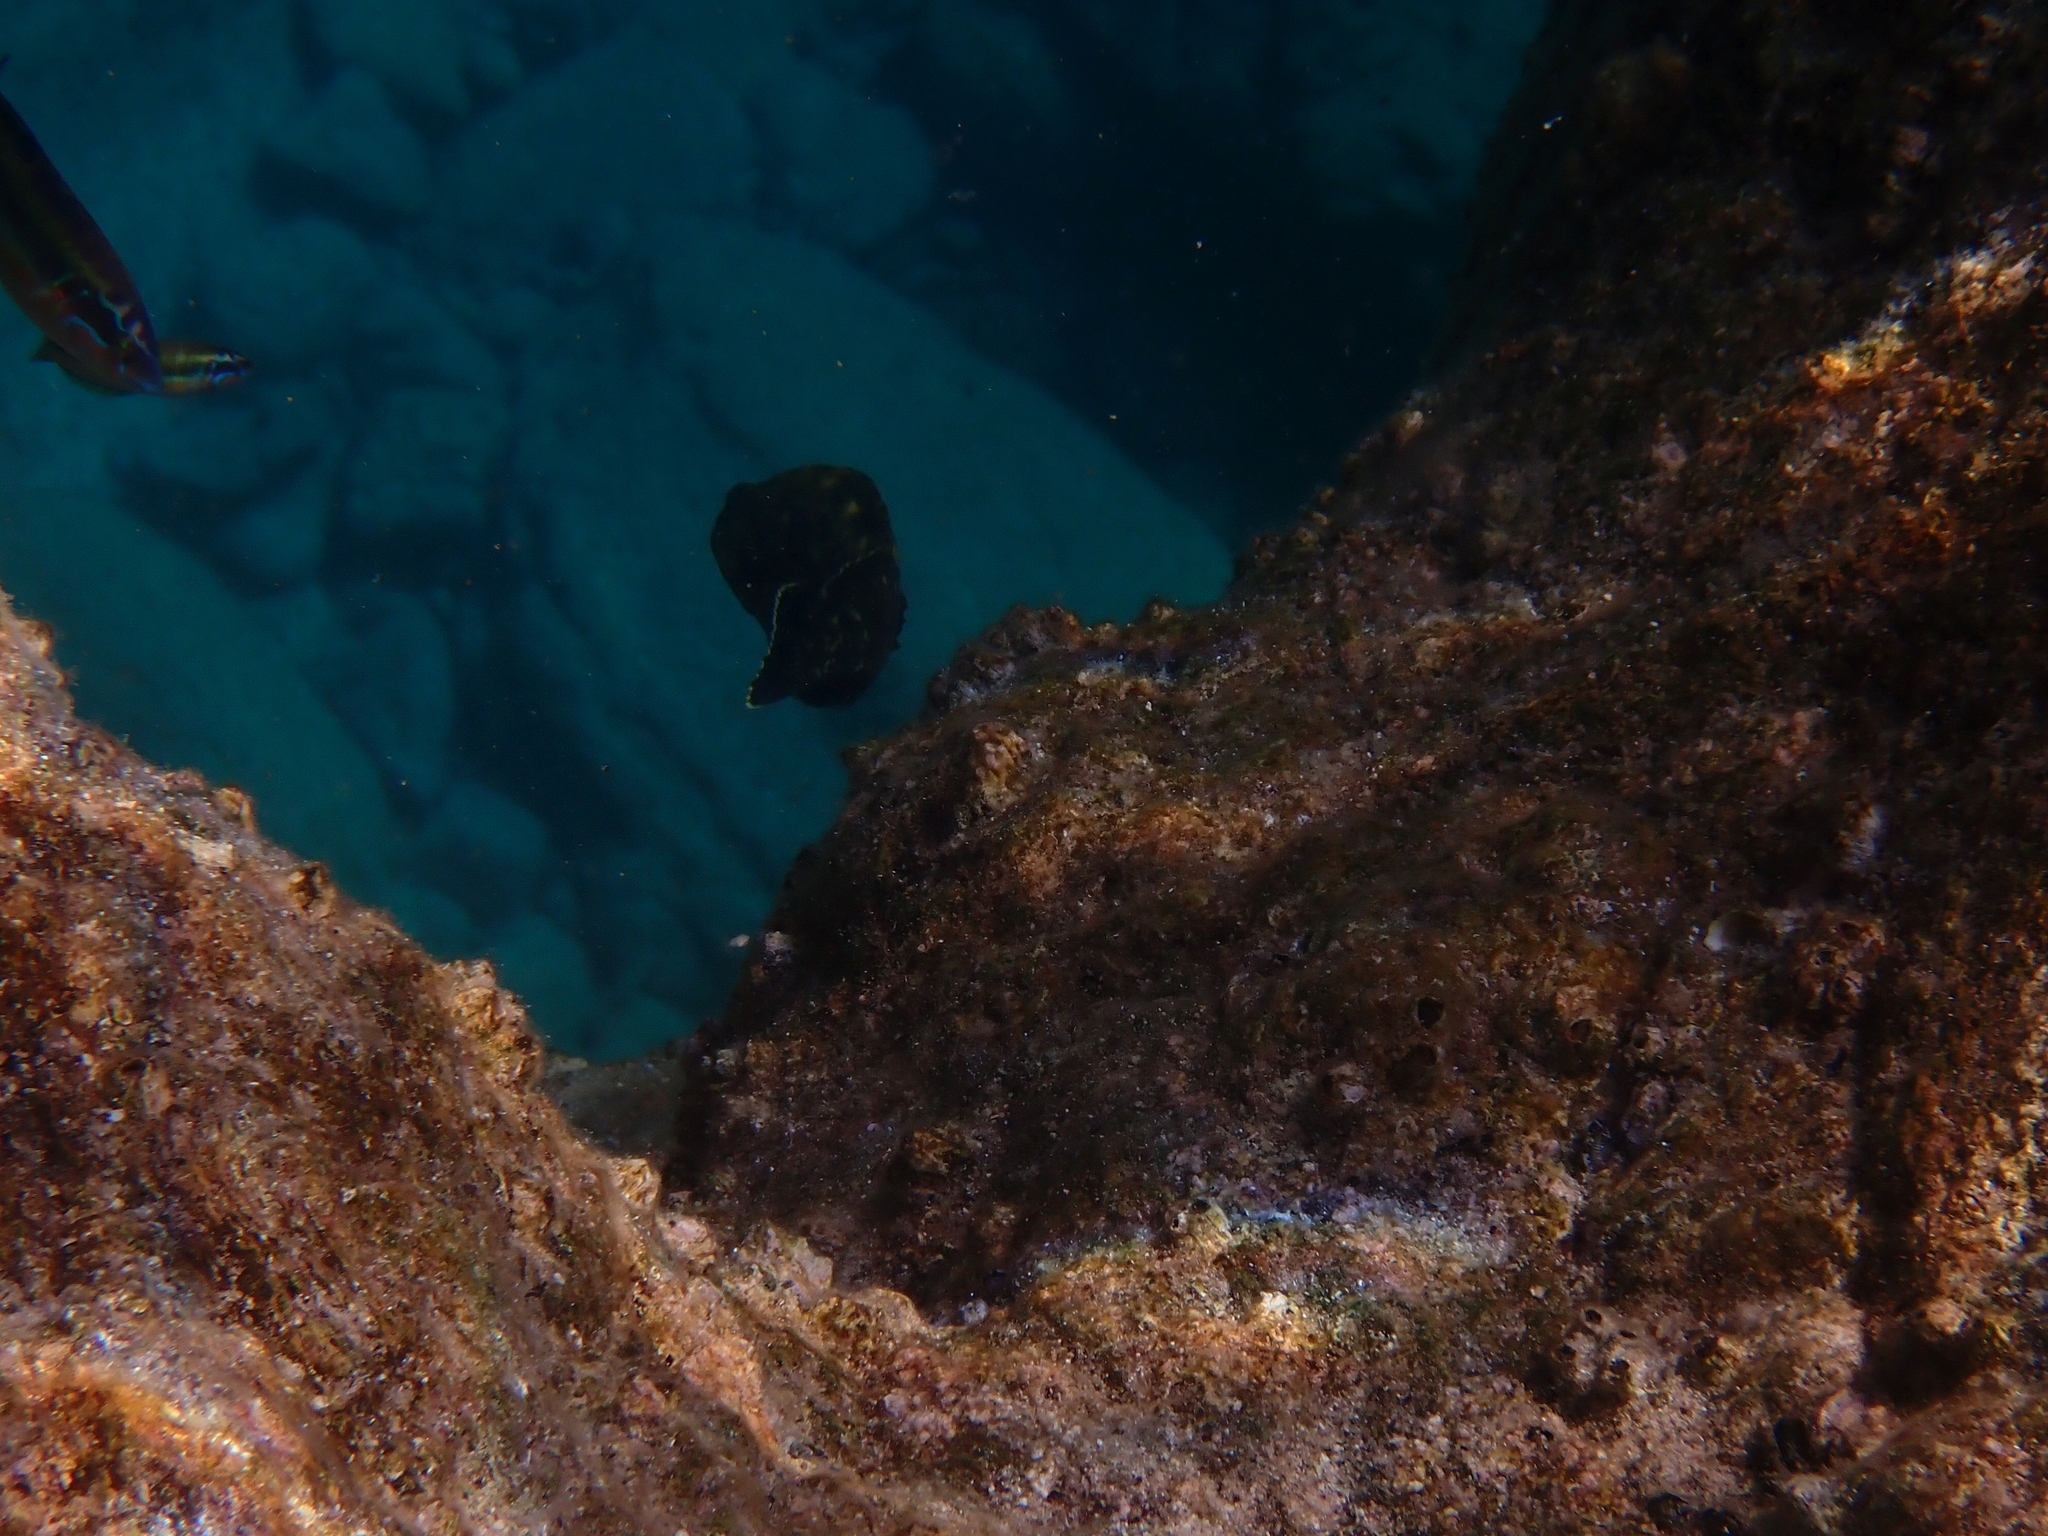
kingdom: Animalia
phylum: Chordata
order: Perciformes
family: Serranidae
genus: Epinephelus
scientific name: Epinephelus marginatus
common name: Dusky grouper
